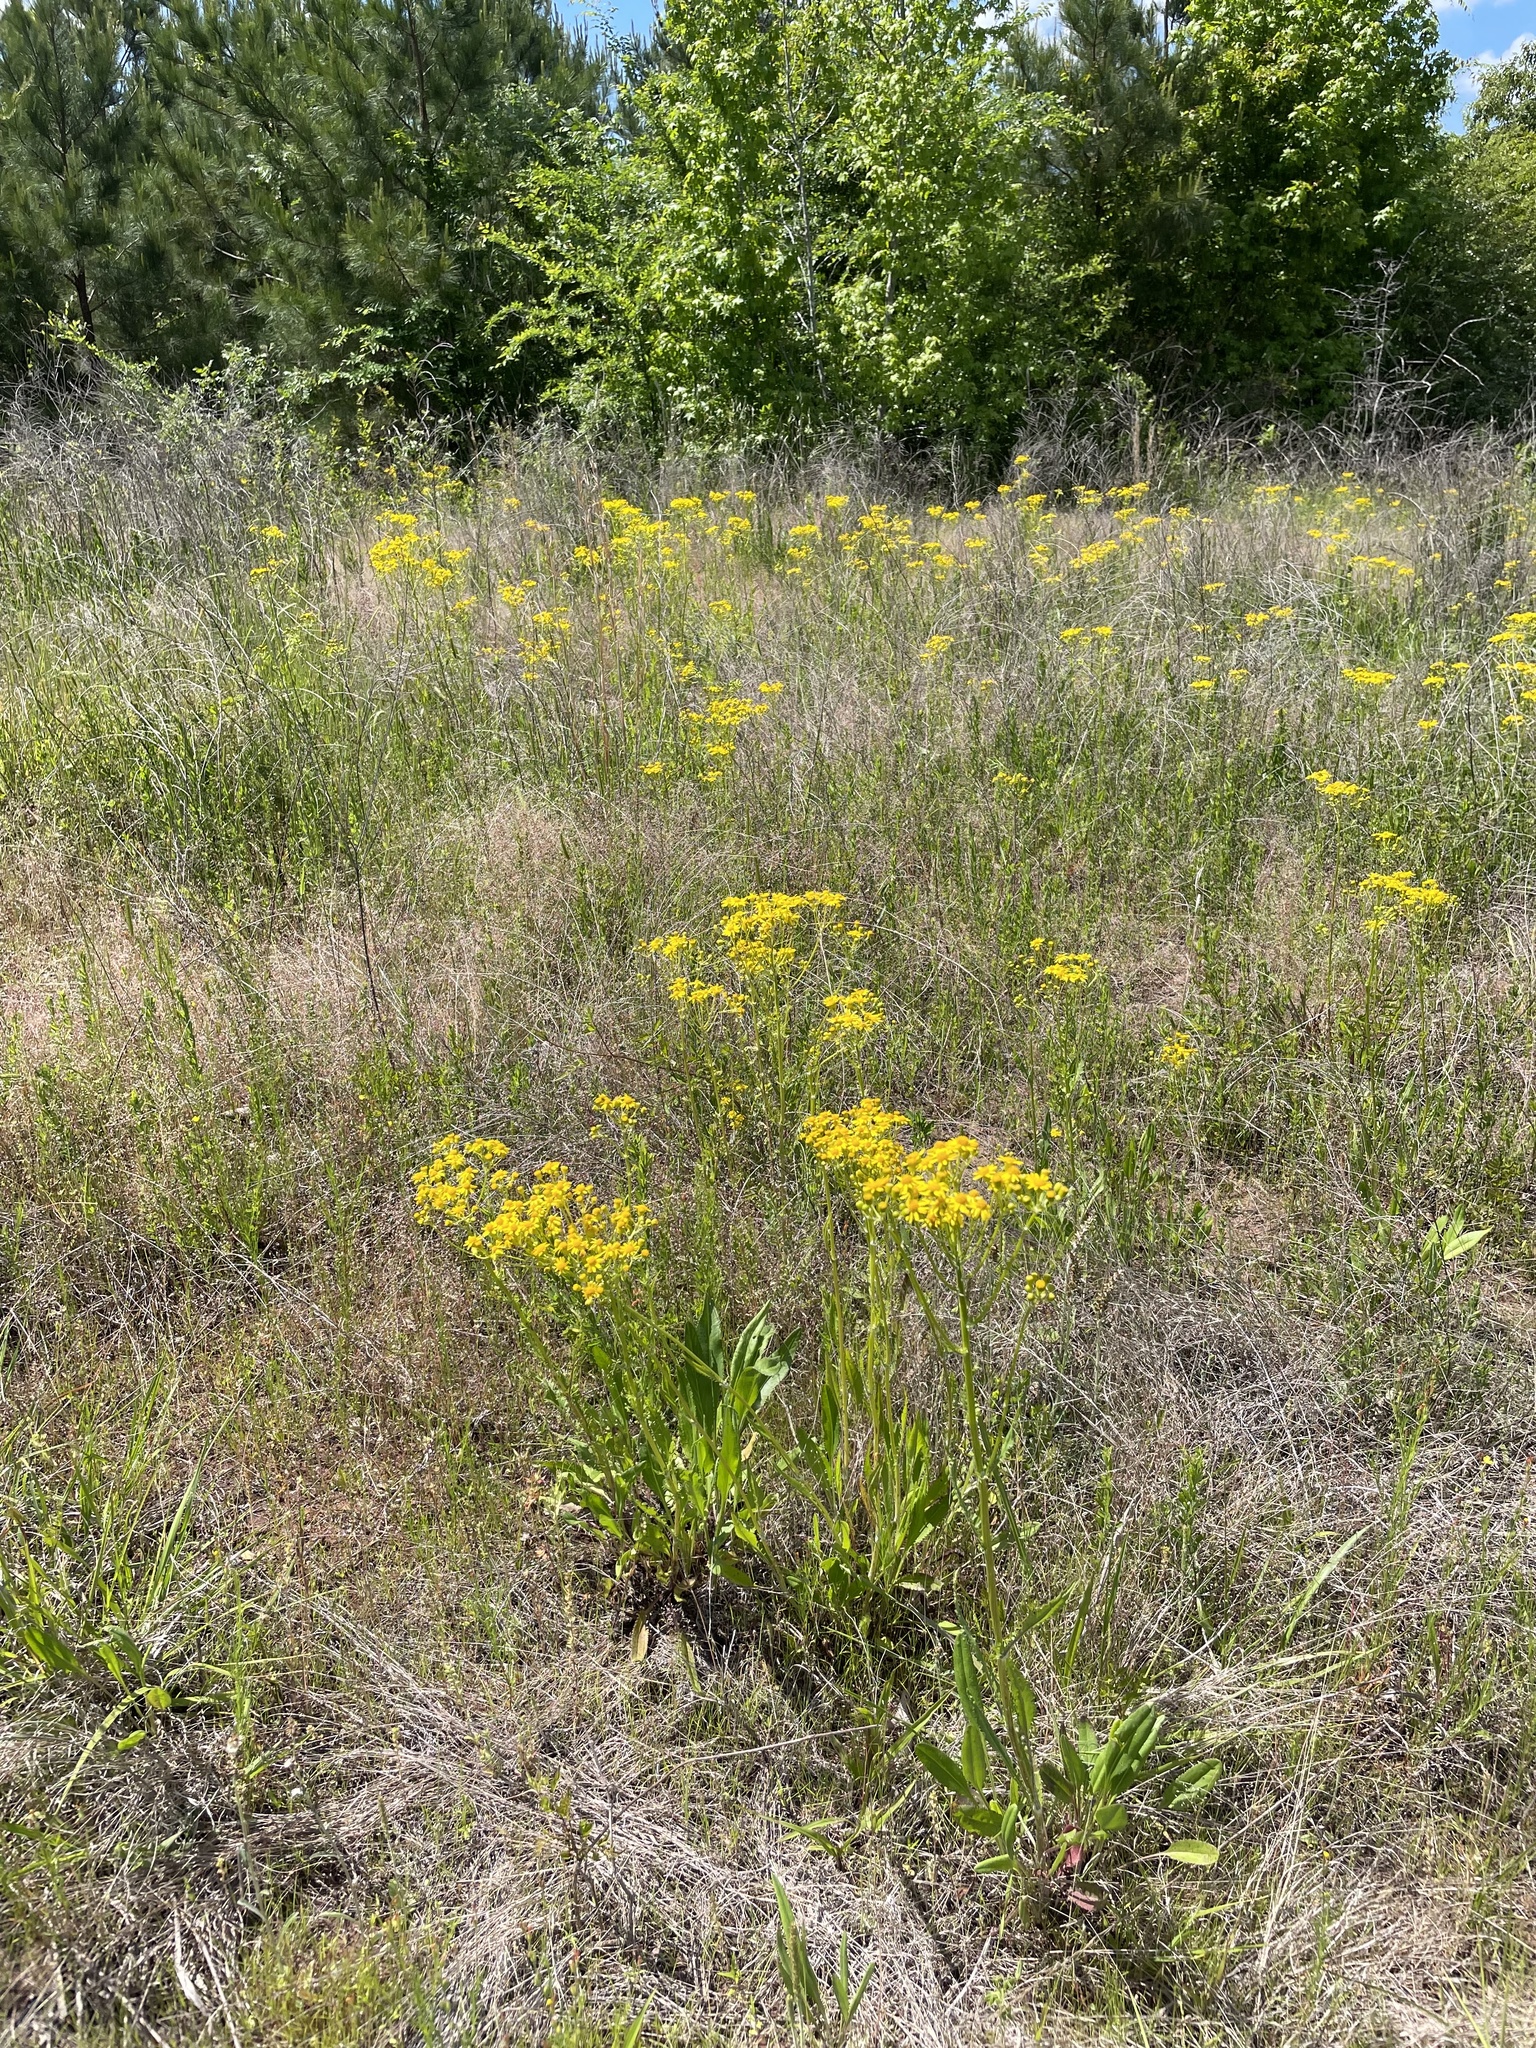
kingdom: Plantae
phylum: Tracheophyta
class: Magnoliopsida
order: Asterales
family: Asteraceae
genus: Packera
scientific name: Packera anonyma
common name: Small ragwort
